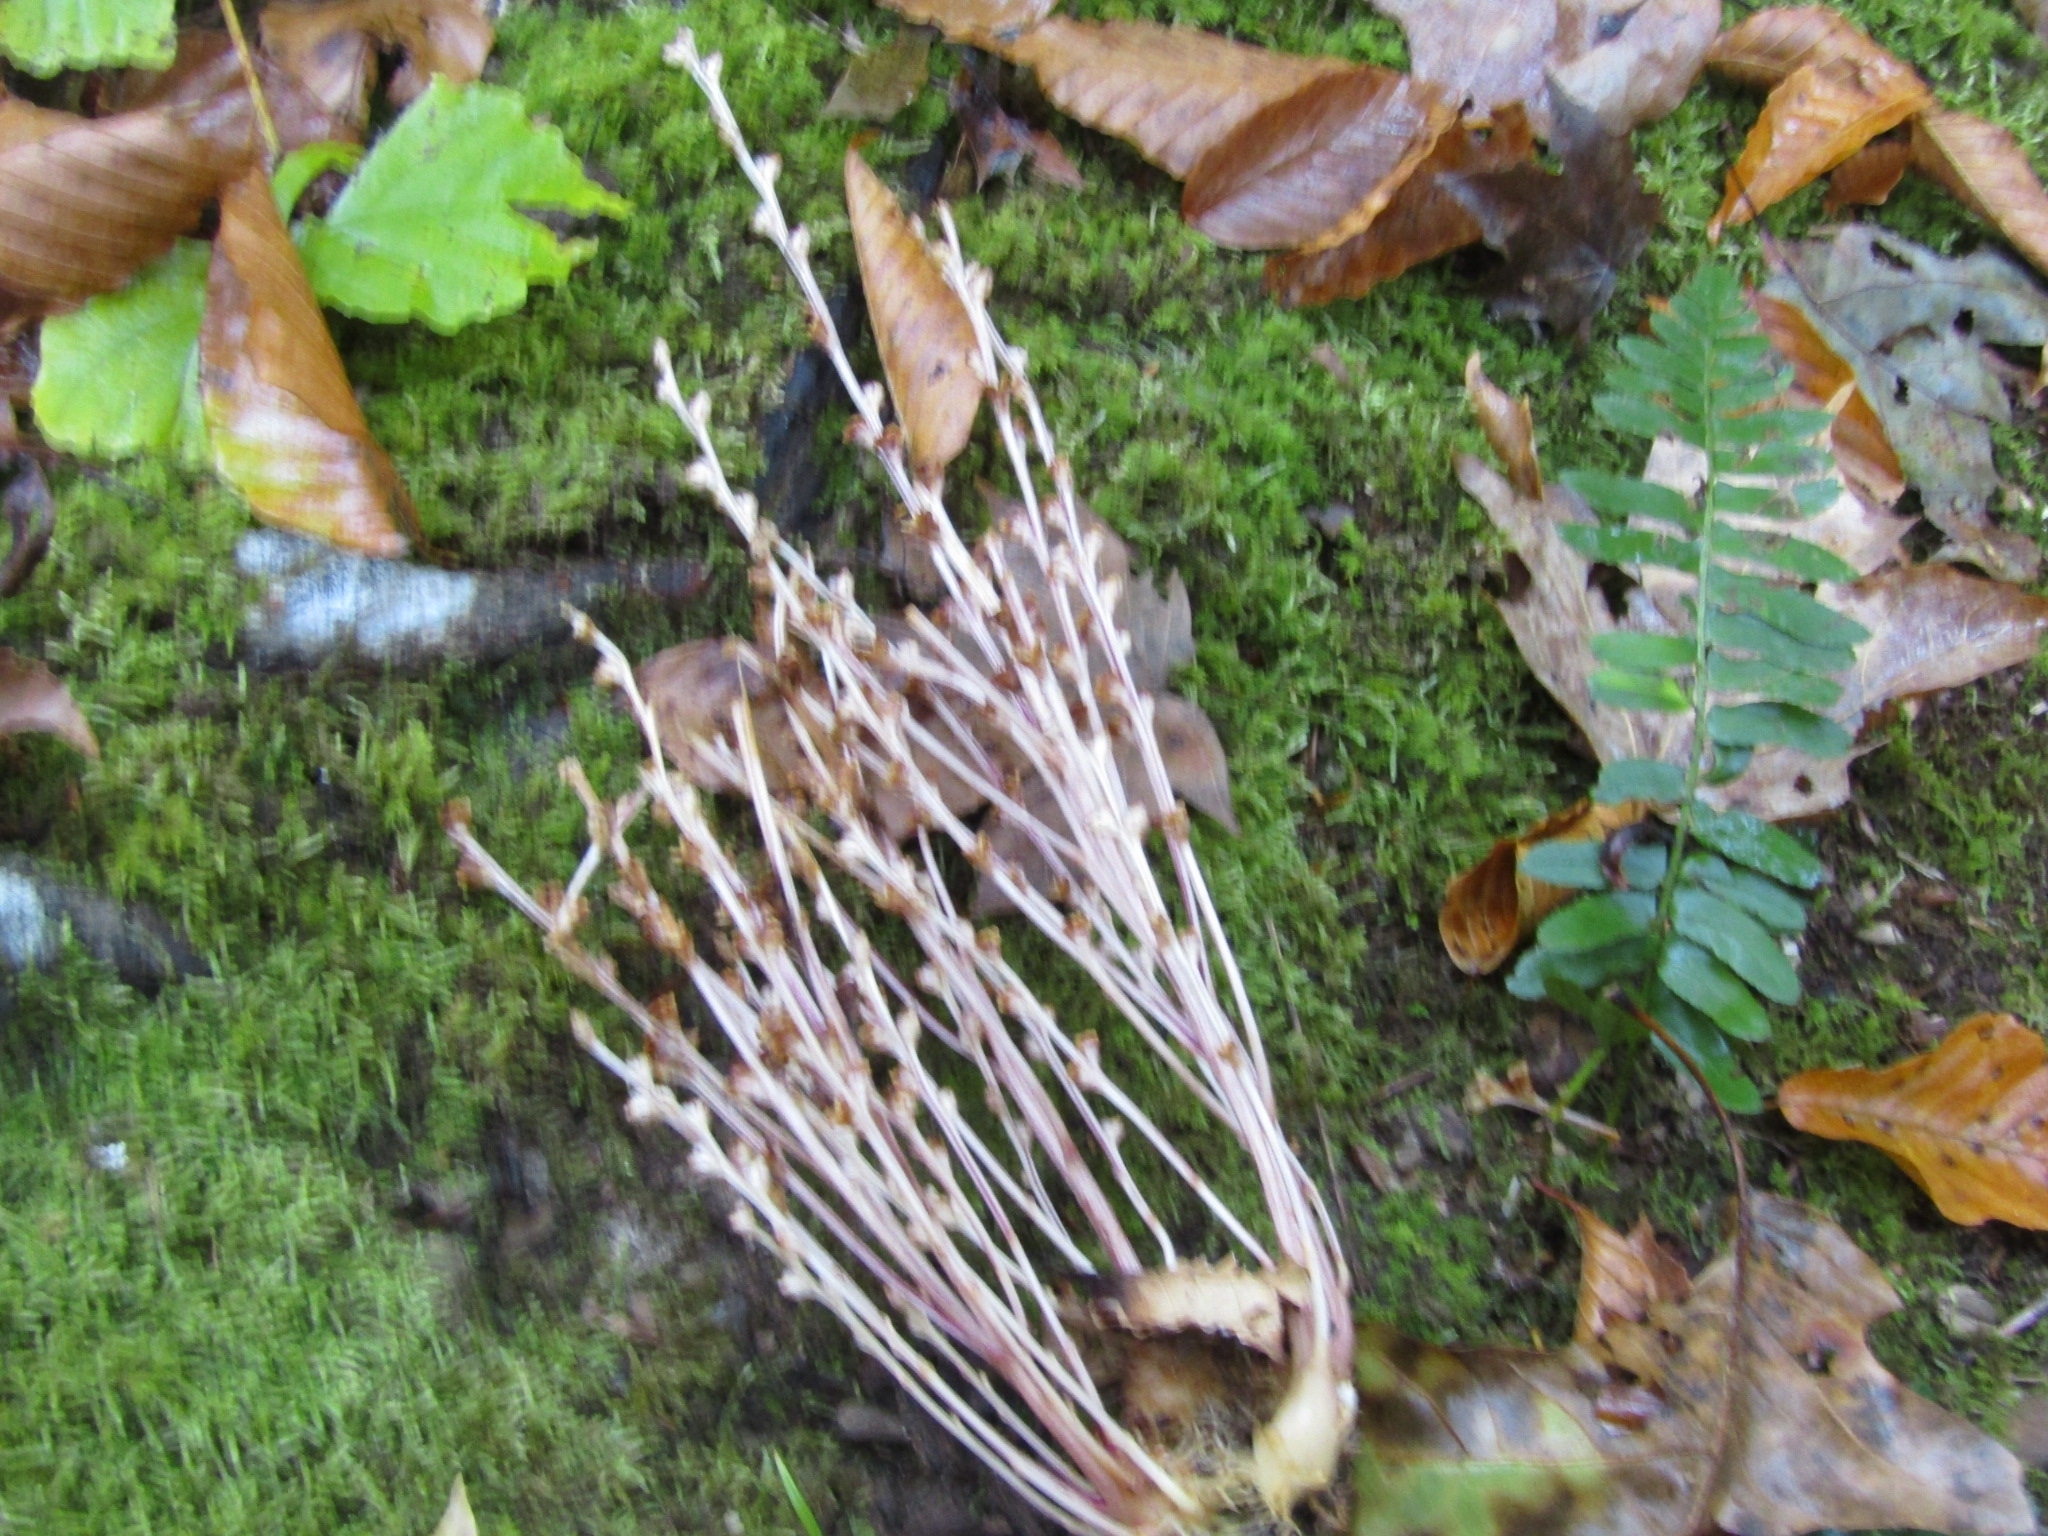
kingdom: Plantae
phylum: Tracheophyta
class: Magnoliopsida
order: Lamiales
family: Orobanchaceae
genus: Epifagus
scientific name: Epifagus virginiana
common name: Beechdrops
